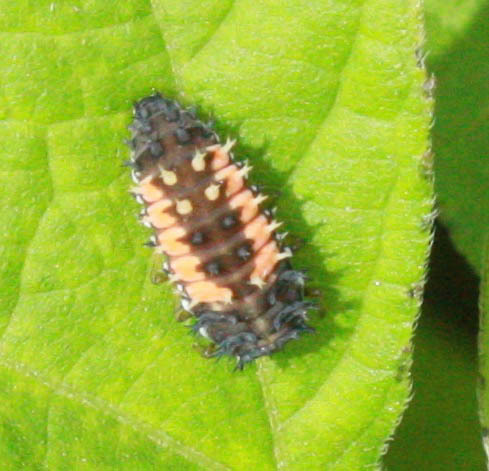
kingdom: Animalia
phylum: Arthropoda
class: Insecta
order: Coleoptera
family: Coccinellidae
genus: Harmonia
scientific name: Harmonia axyridis
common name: Harlequin ladybird
